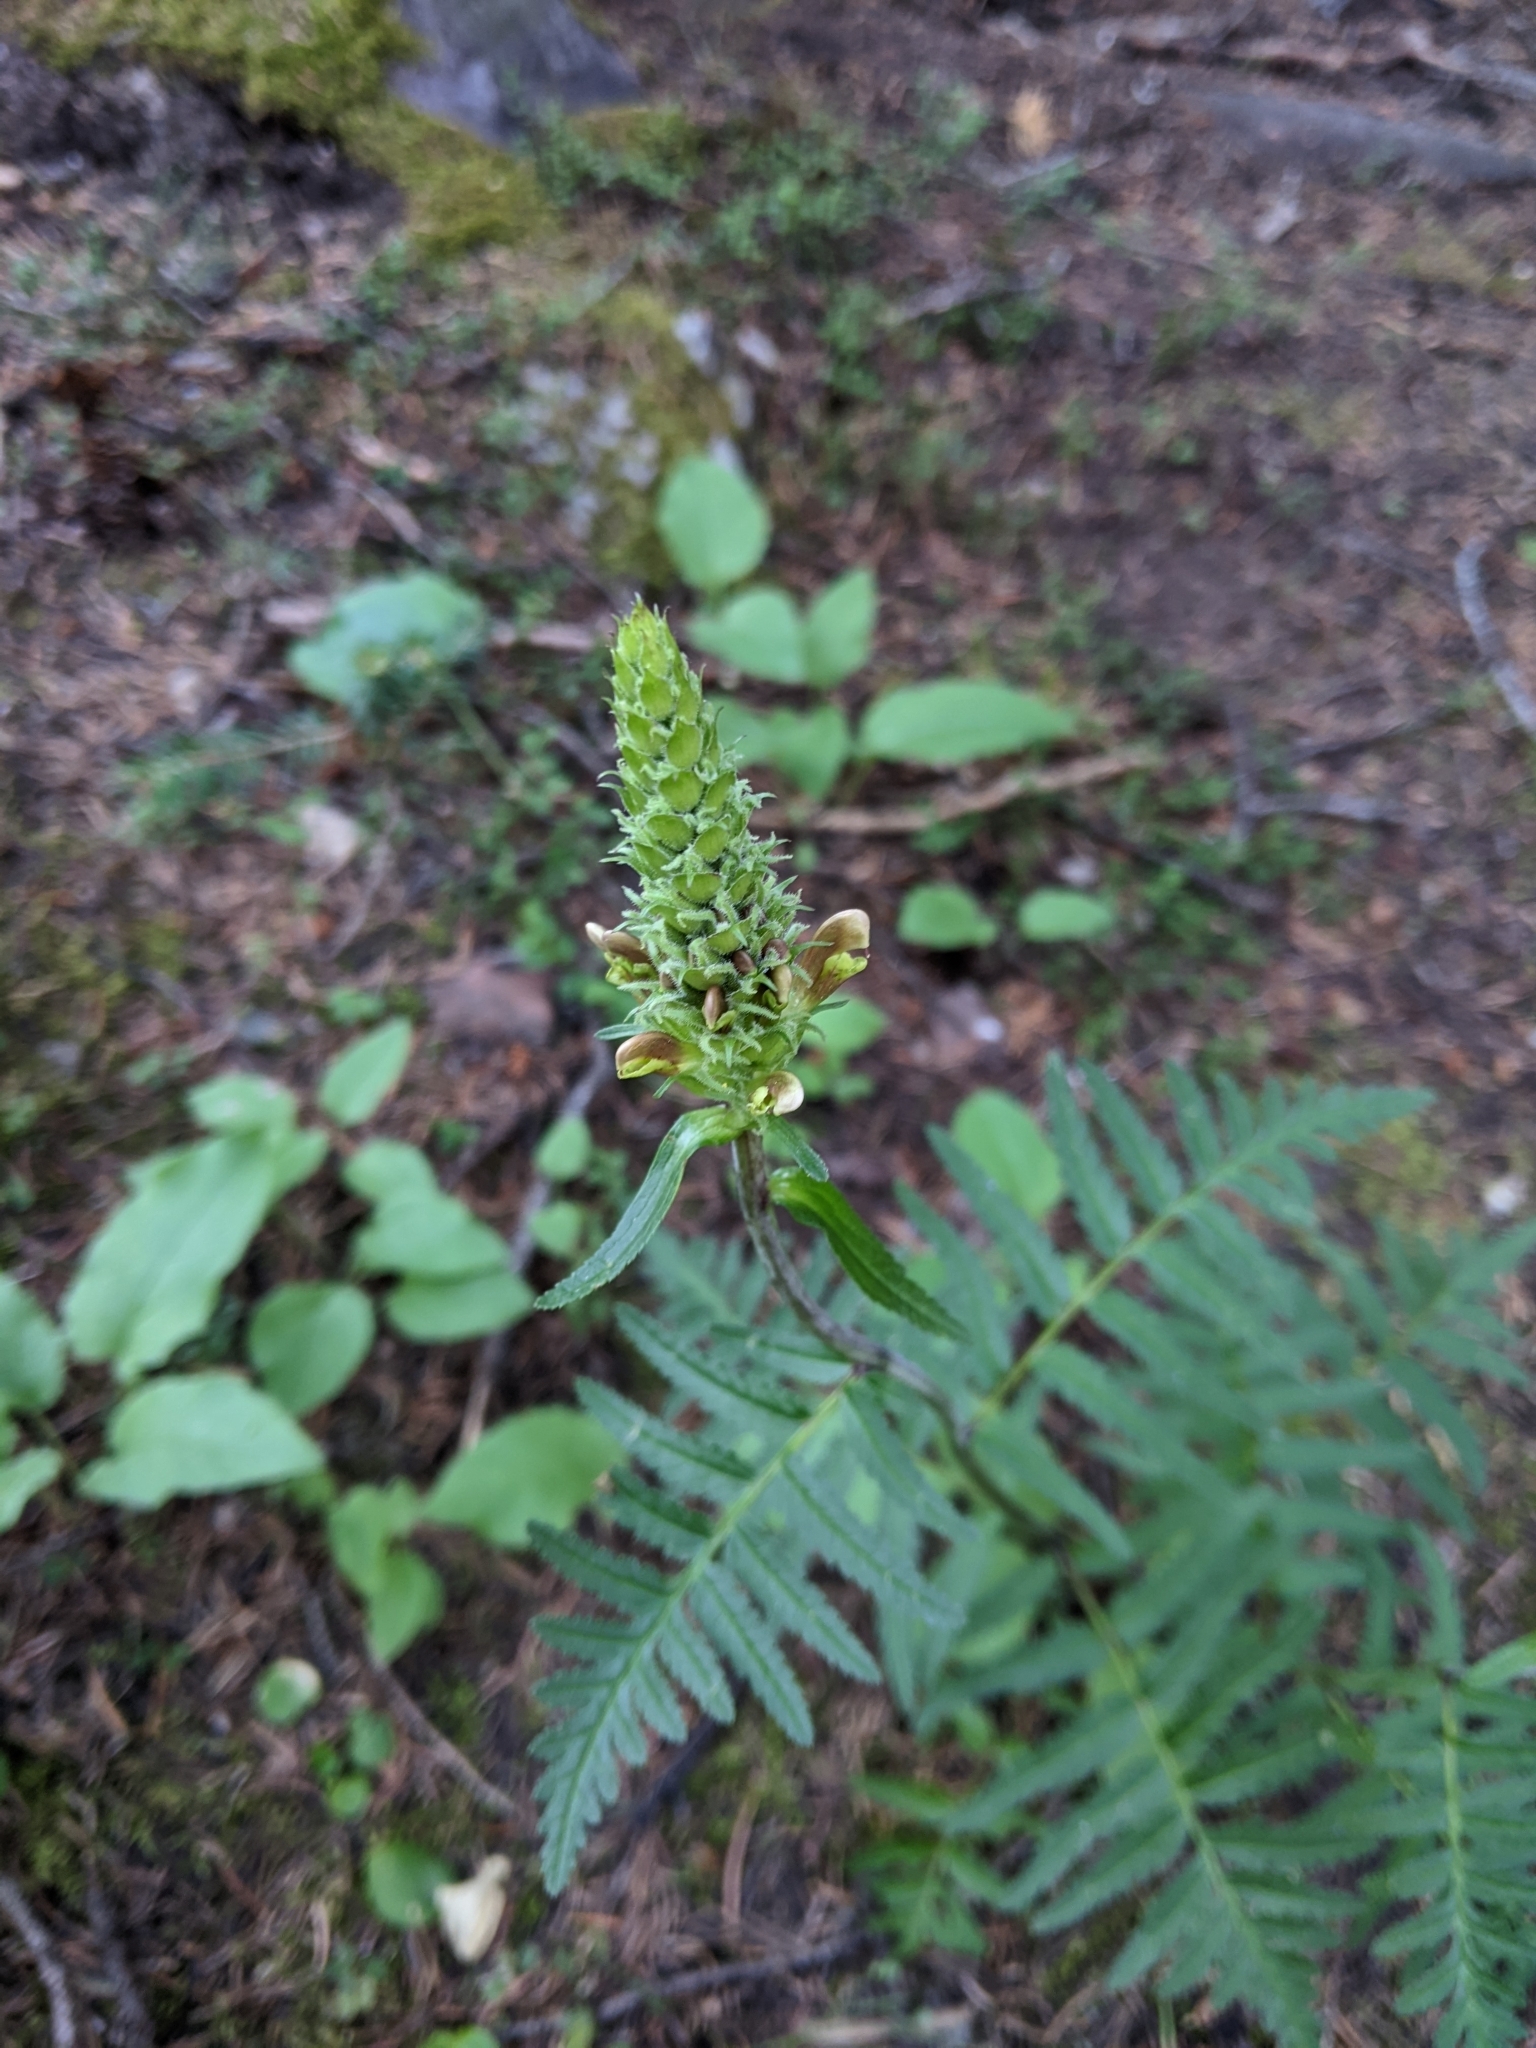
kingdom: Plantae
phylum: Tracheophyta
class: Magnoliopsida
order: Lamiales
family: Orobanchaceae
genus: Pedicularis
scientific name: Pedicularis bracteosa
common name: Bracted lousewort
